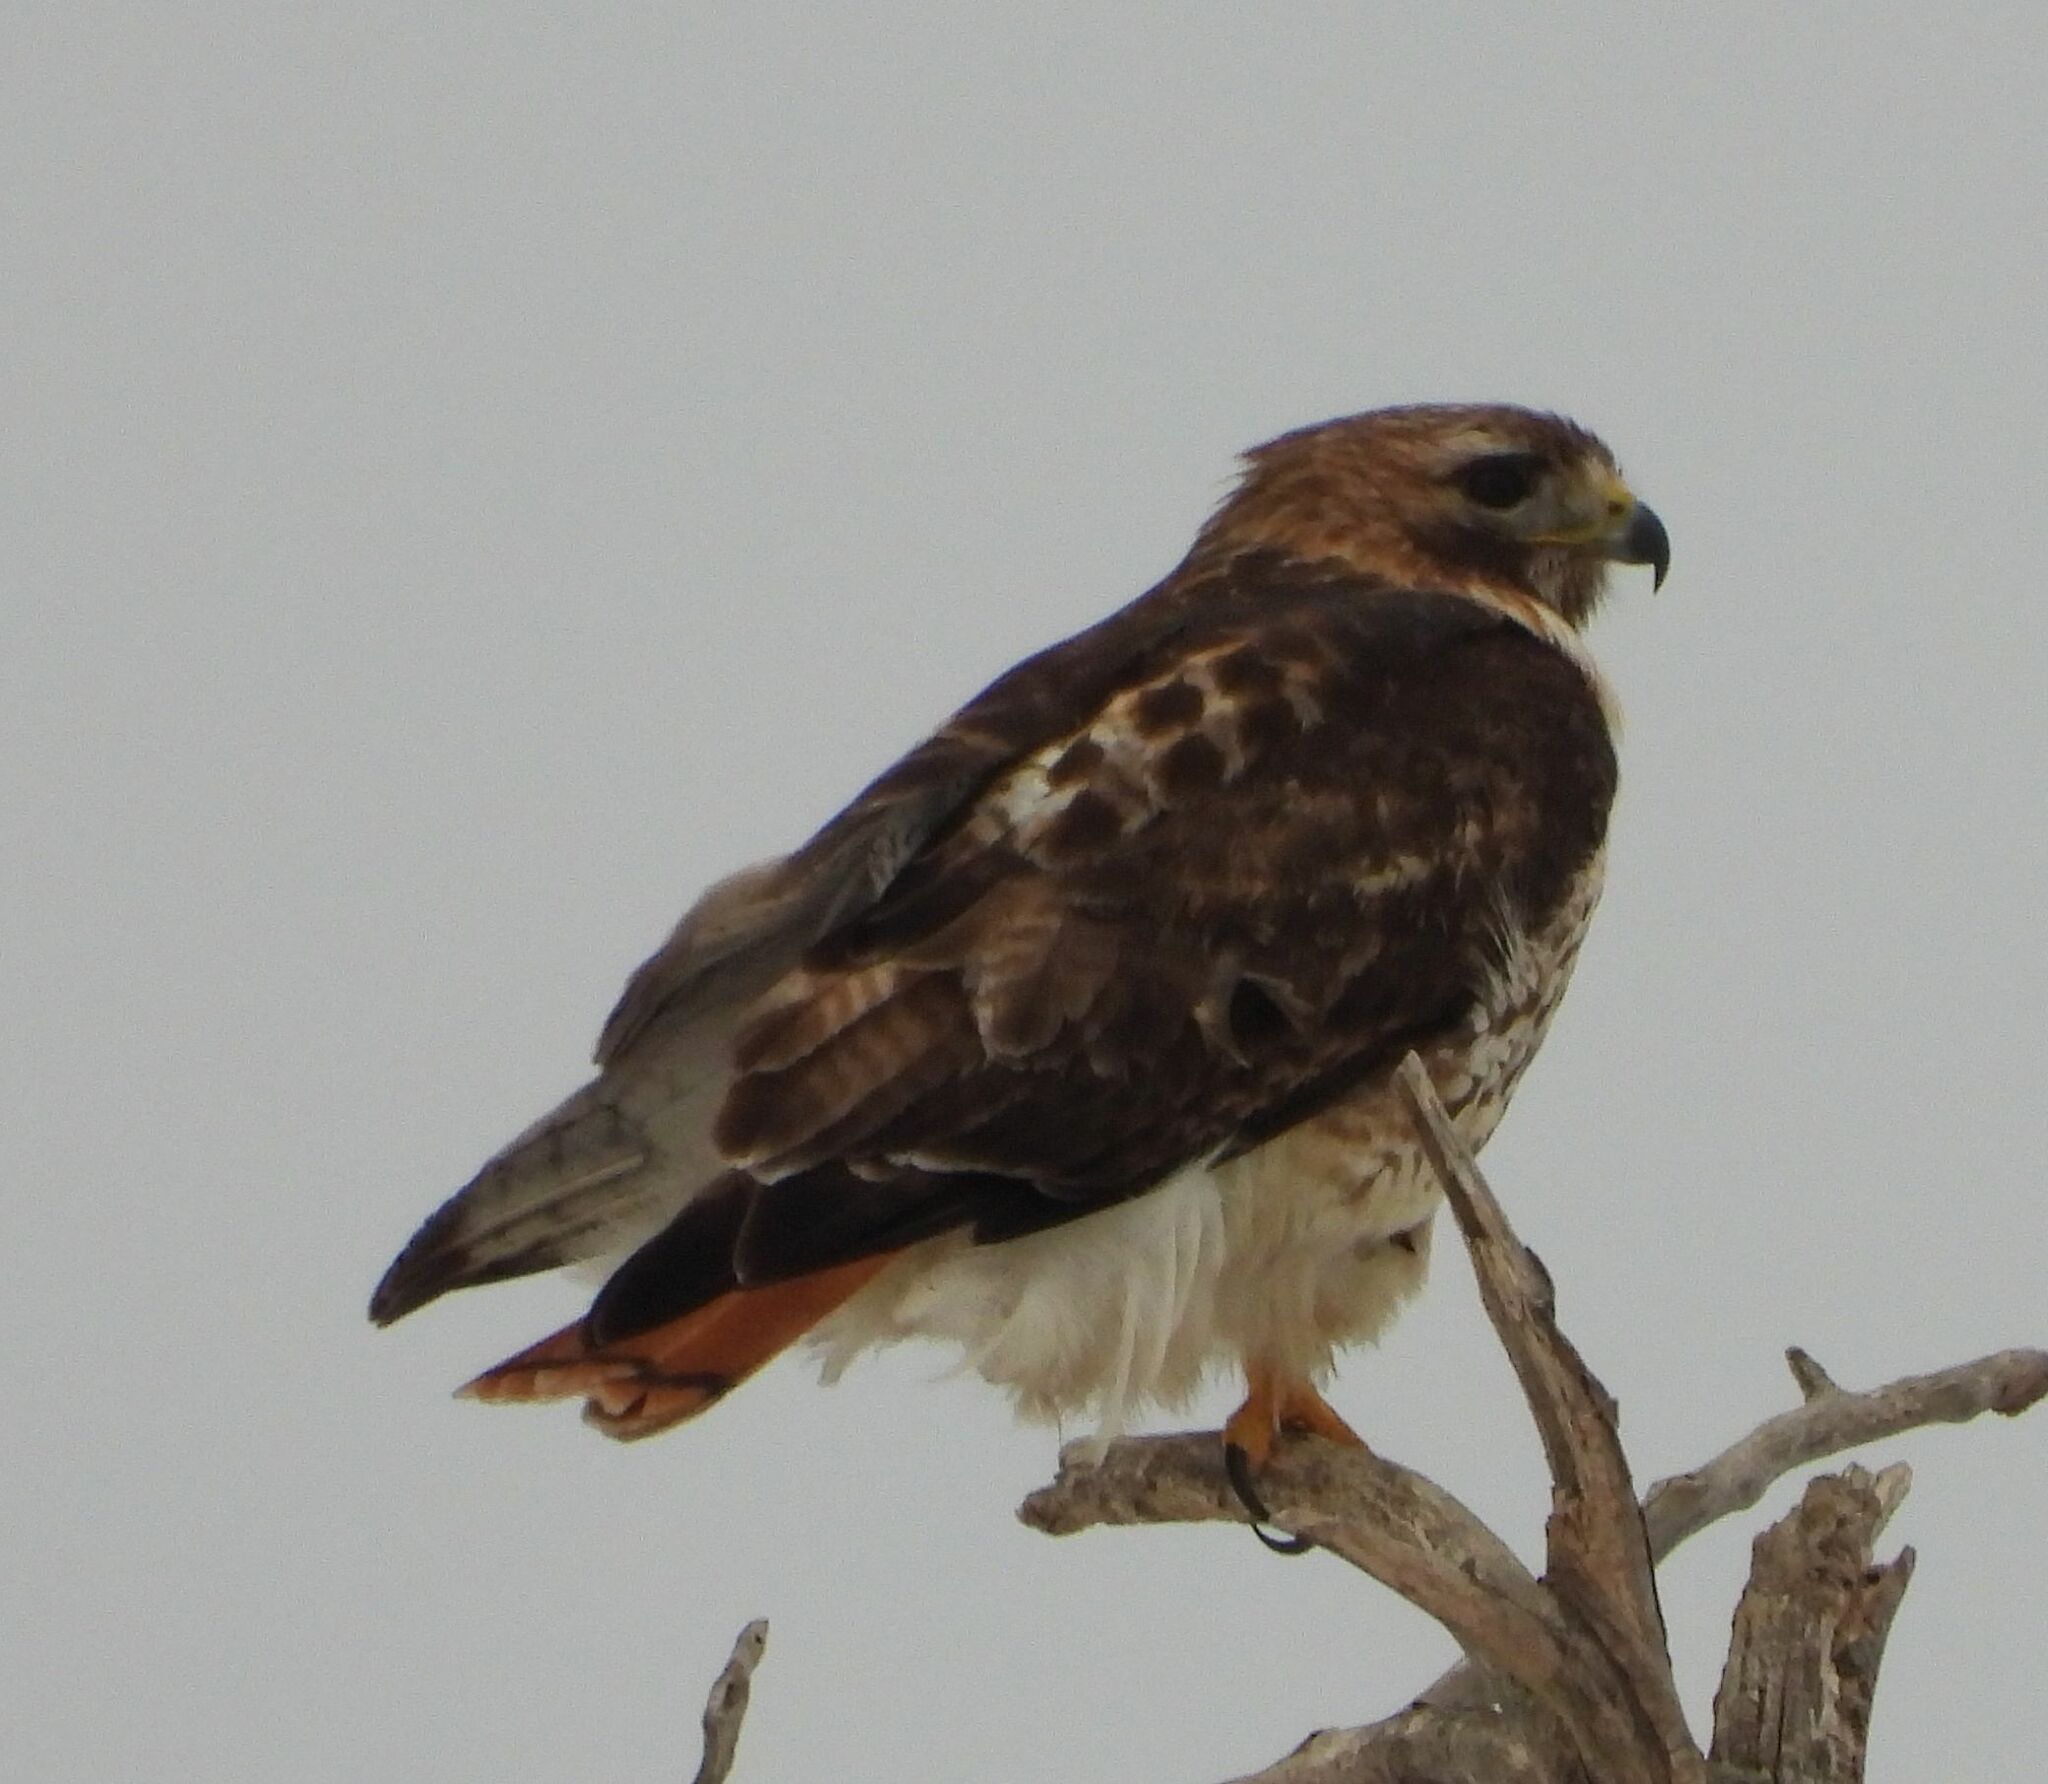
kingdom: Animalia
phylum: Chordata
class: Aves
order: Accipitriformes
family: Accipitridae
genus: Buteo
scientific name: Buteo jamaicensis
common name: Red-tailed hawk
